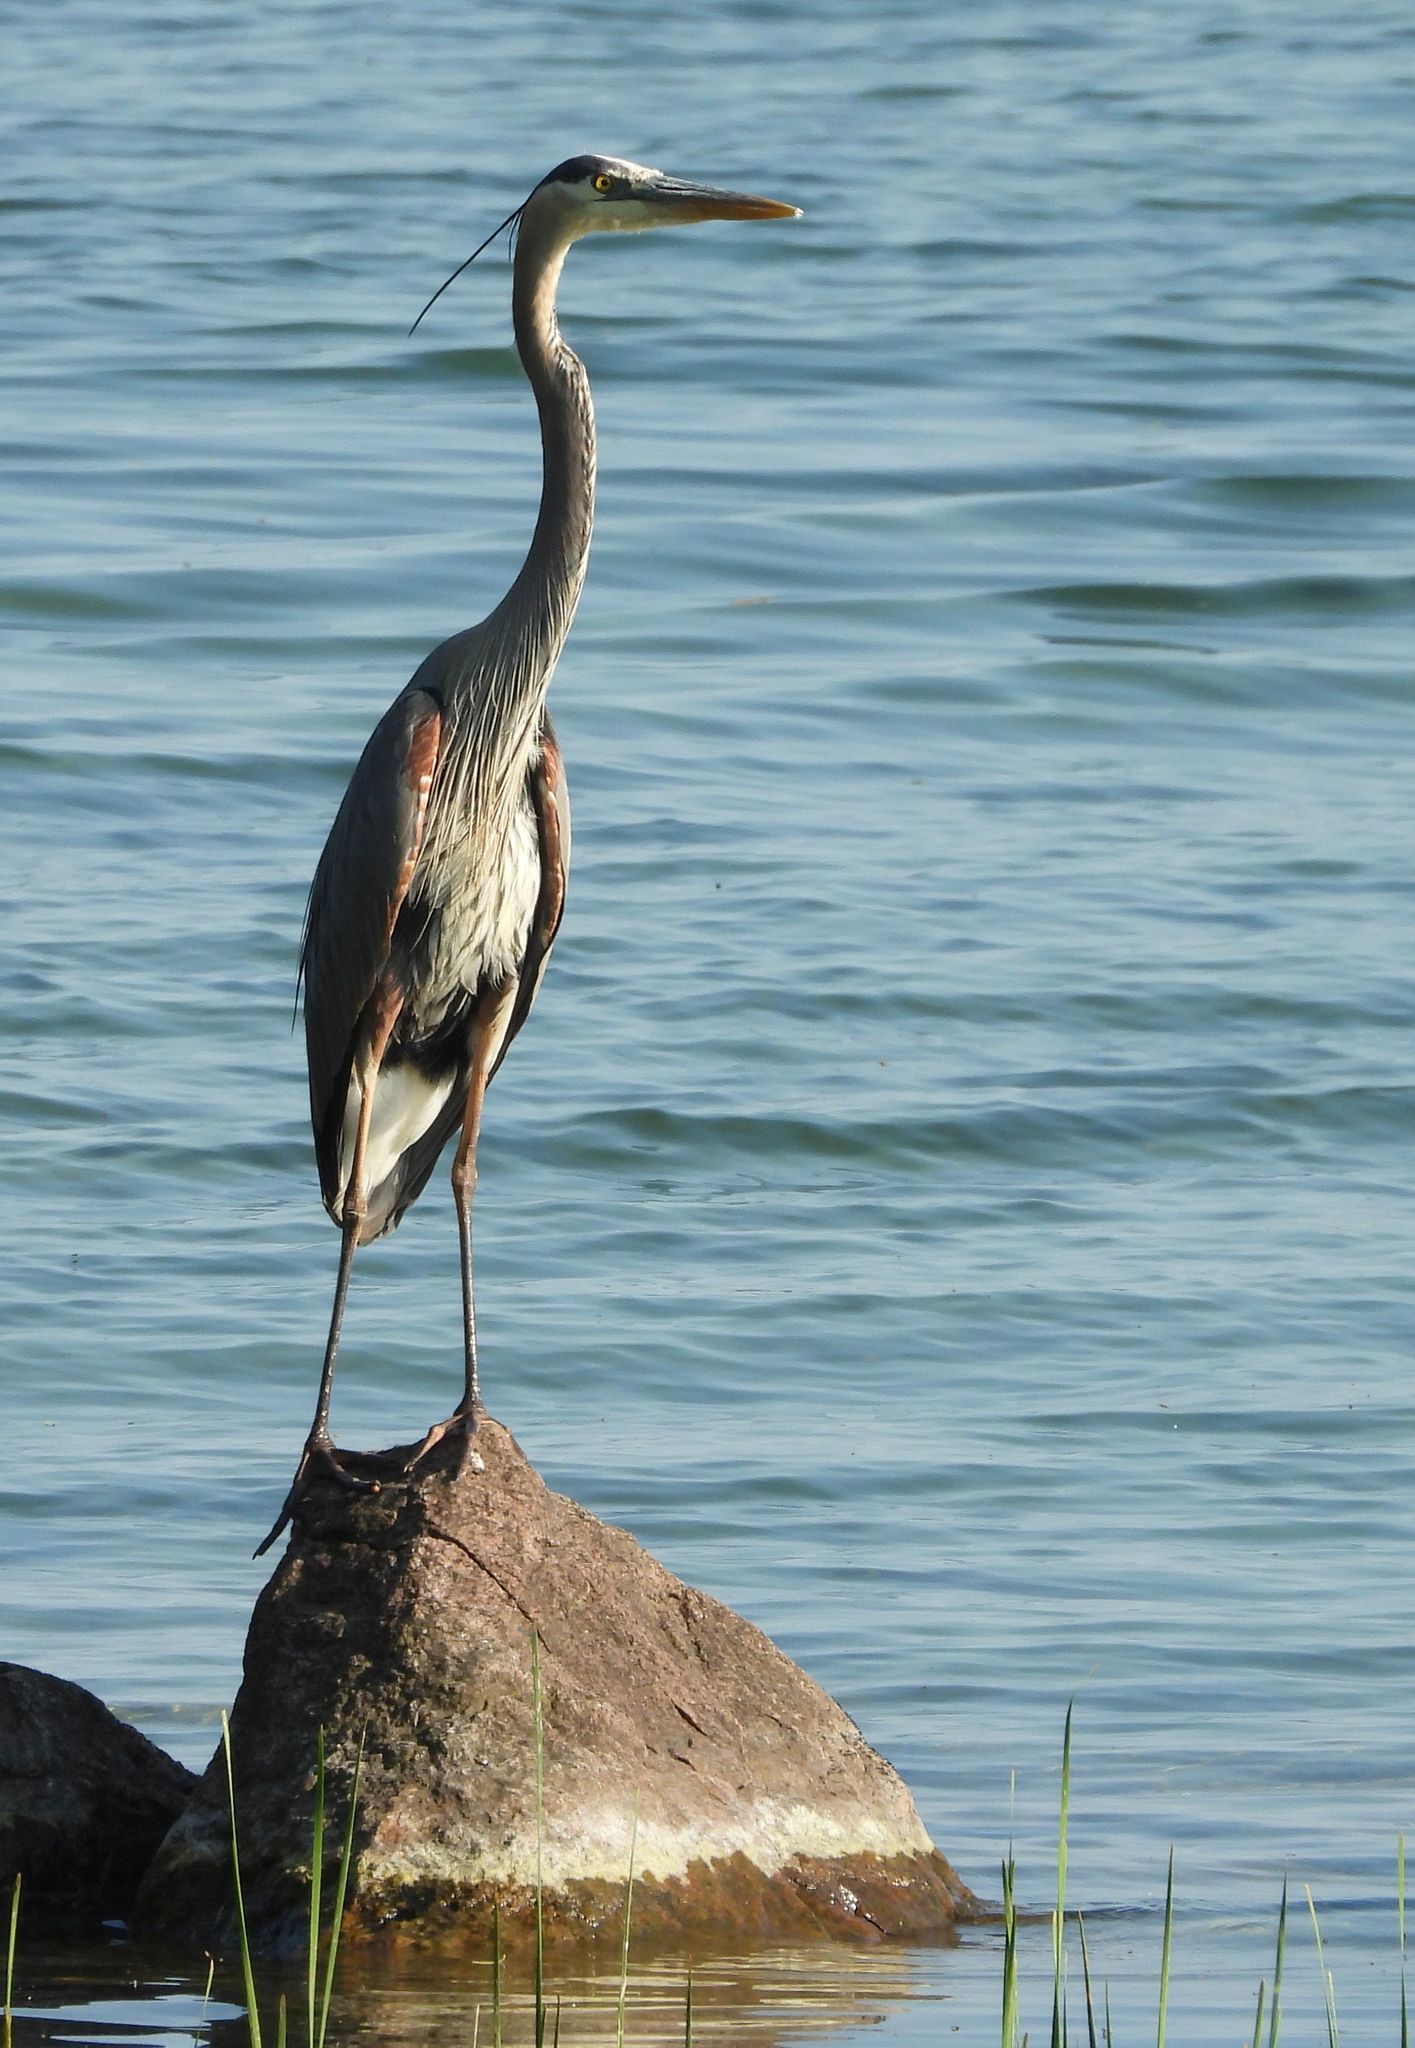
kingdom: Animalia
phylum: Chordata
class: Aves
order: Pelecaniformes
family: Ardeidae
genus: Ardea
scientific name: Ardea herodias
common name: Great blue heron
